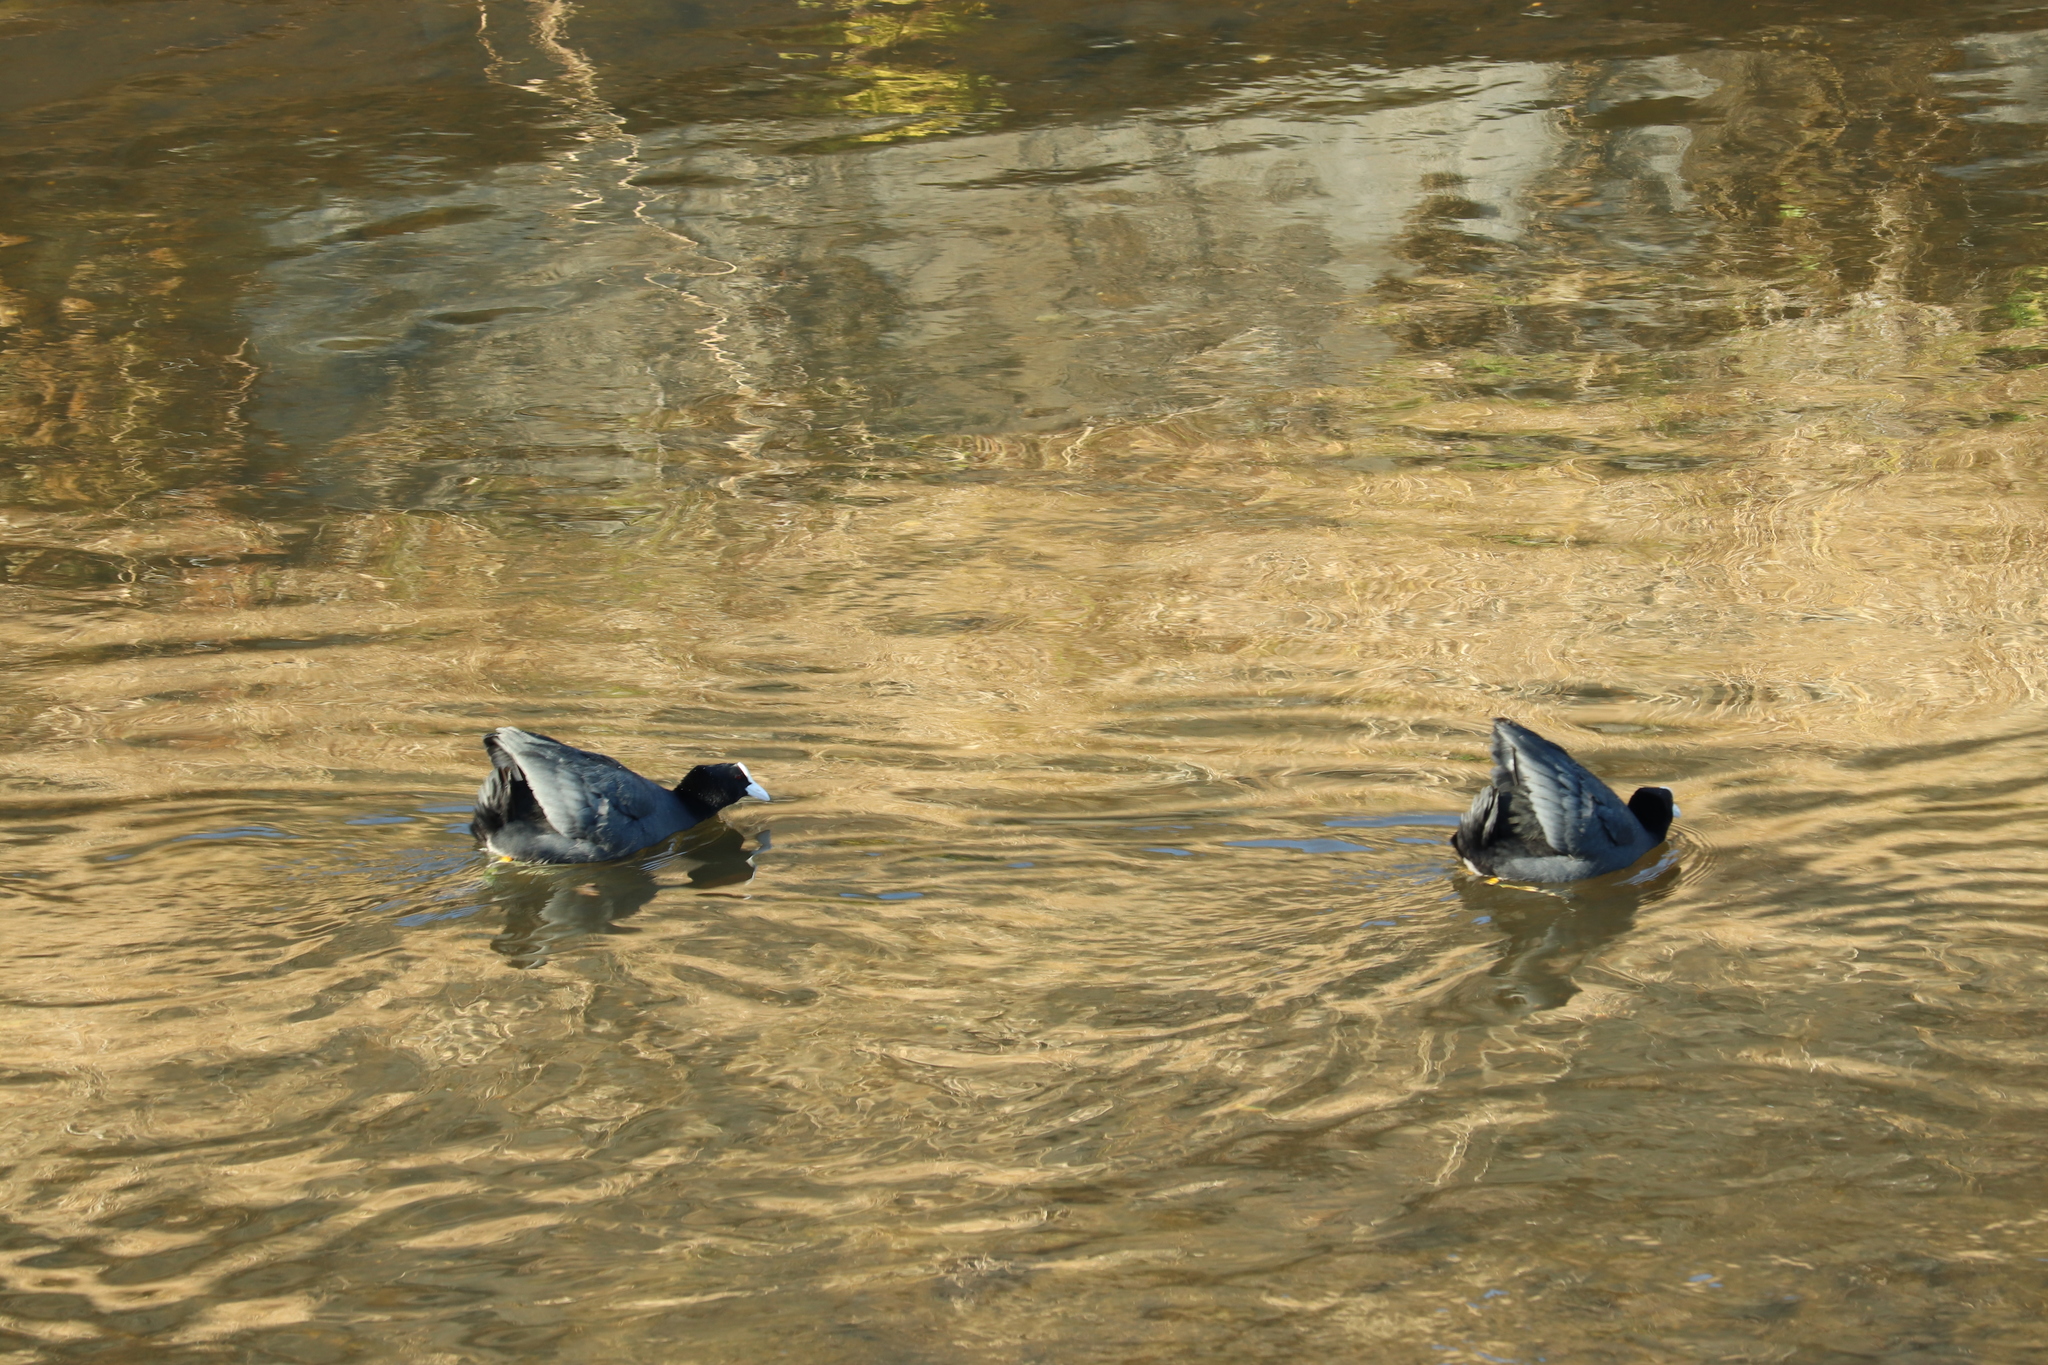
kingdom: Animalia
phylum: Chordata
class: Aves
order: Gruiformes
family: Rallidae
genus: Fulica
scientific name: Fulica atra
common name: Eurasian coot
